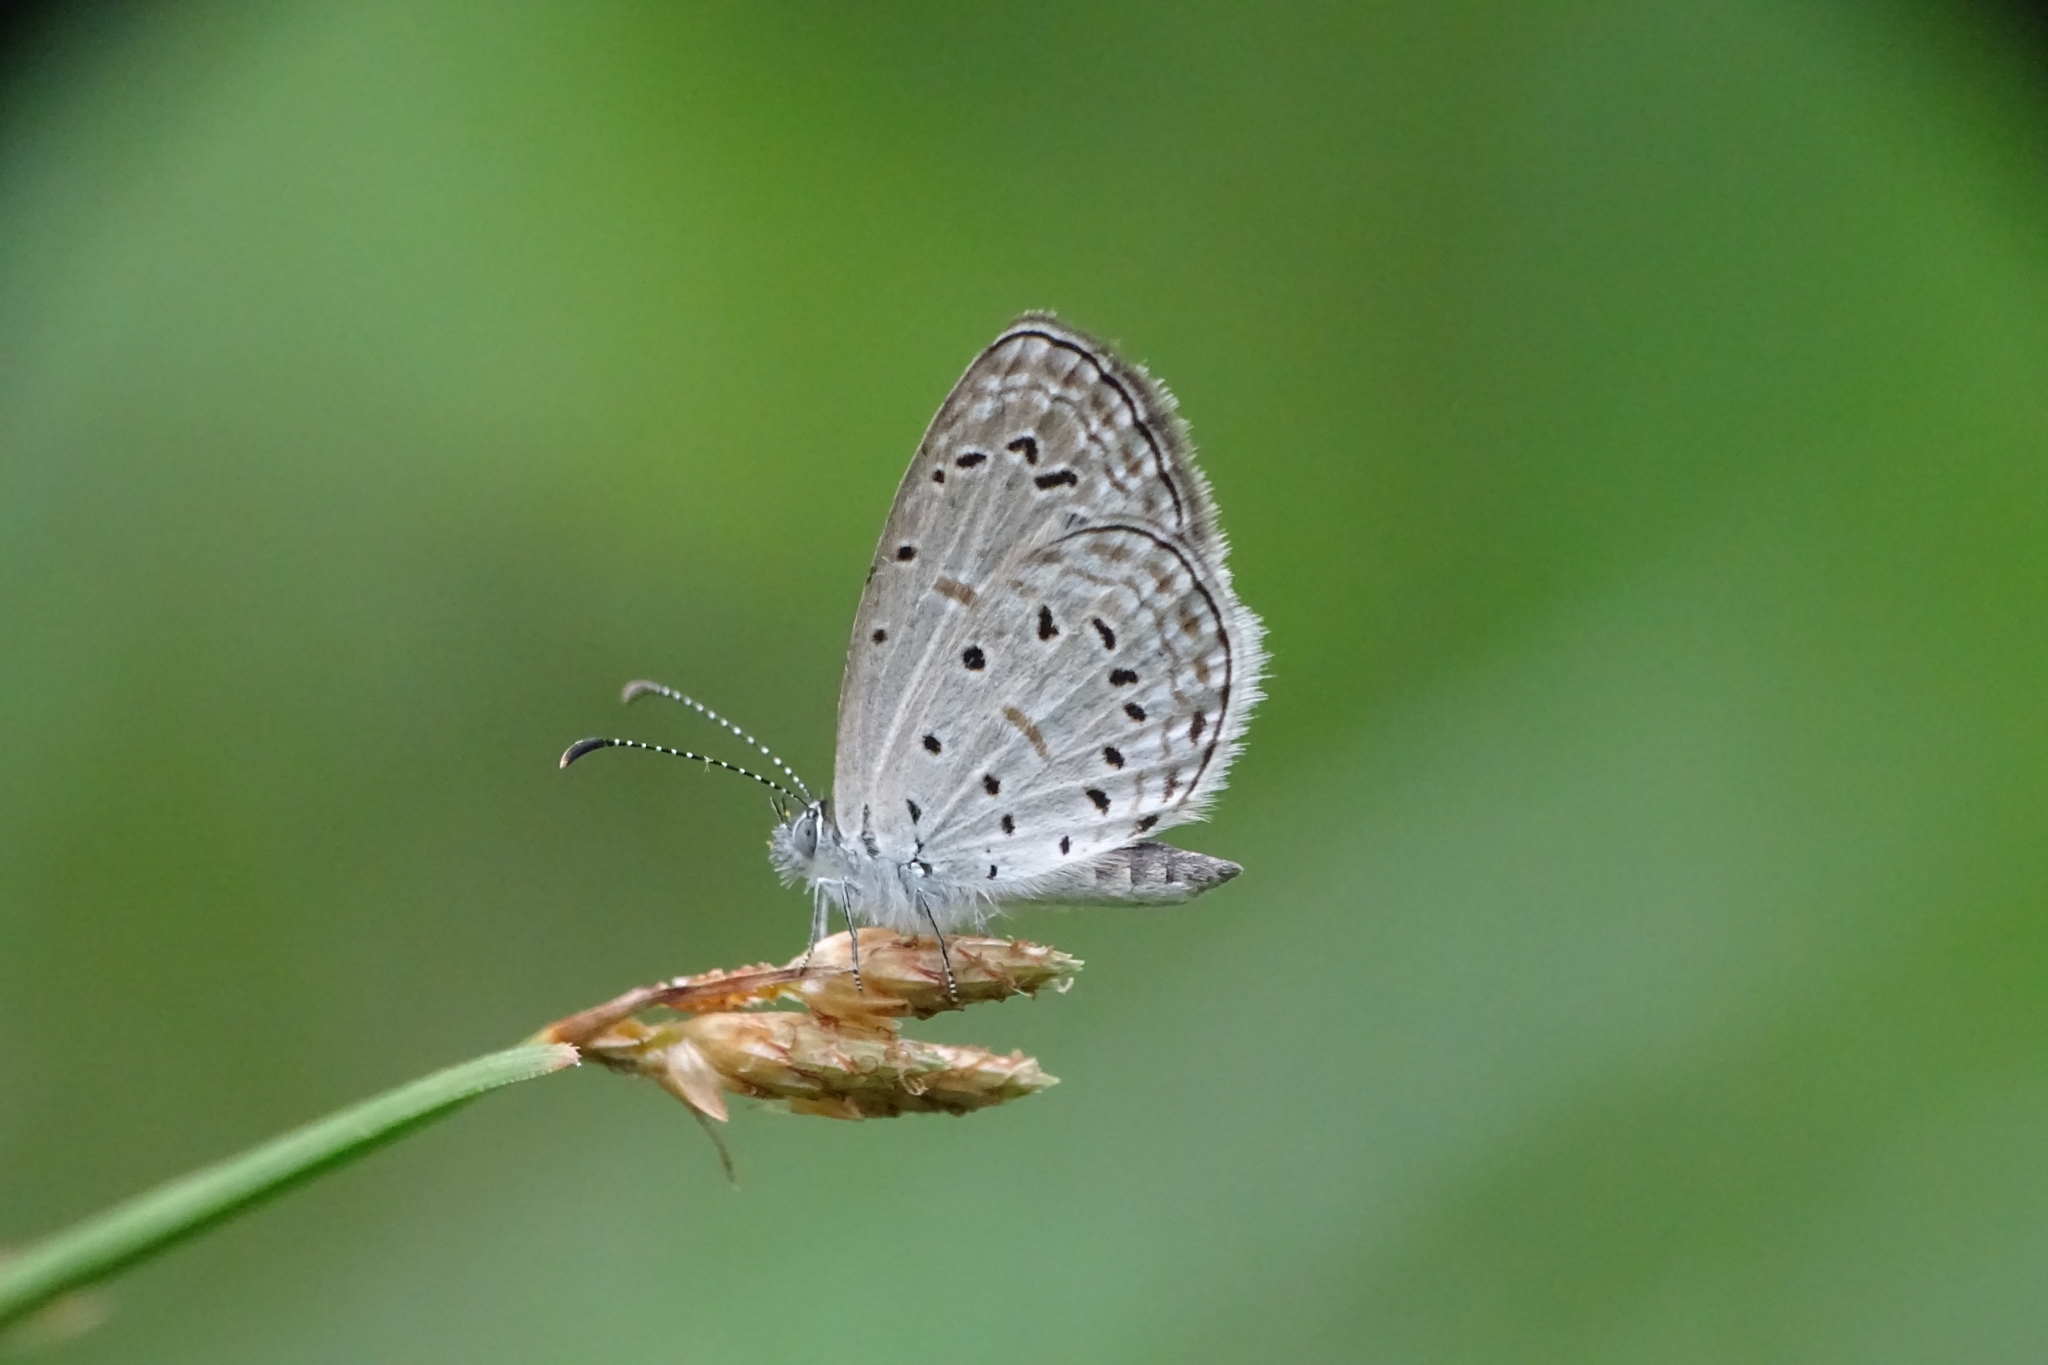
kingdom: Animalia
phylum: Arthropoda
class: Insecta
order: Lepidoptera
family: Lycaenidae
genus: Zizula
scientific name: Zizula hylax
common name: Gaika blue
